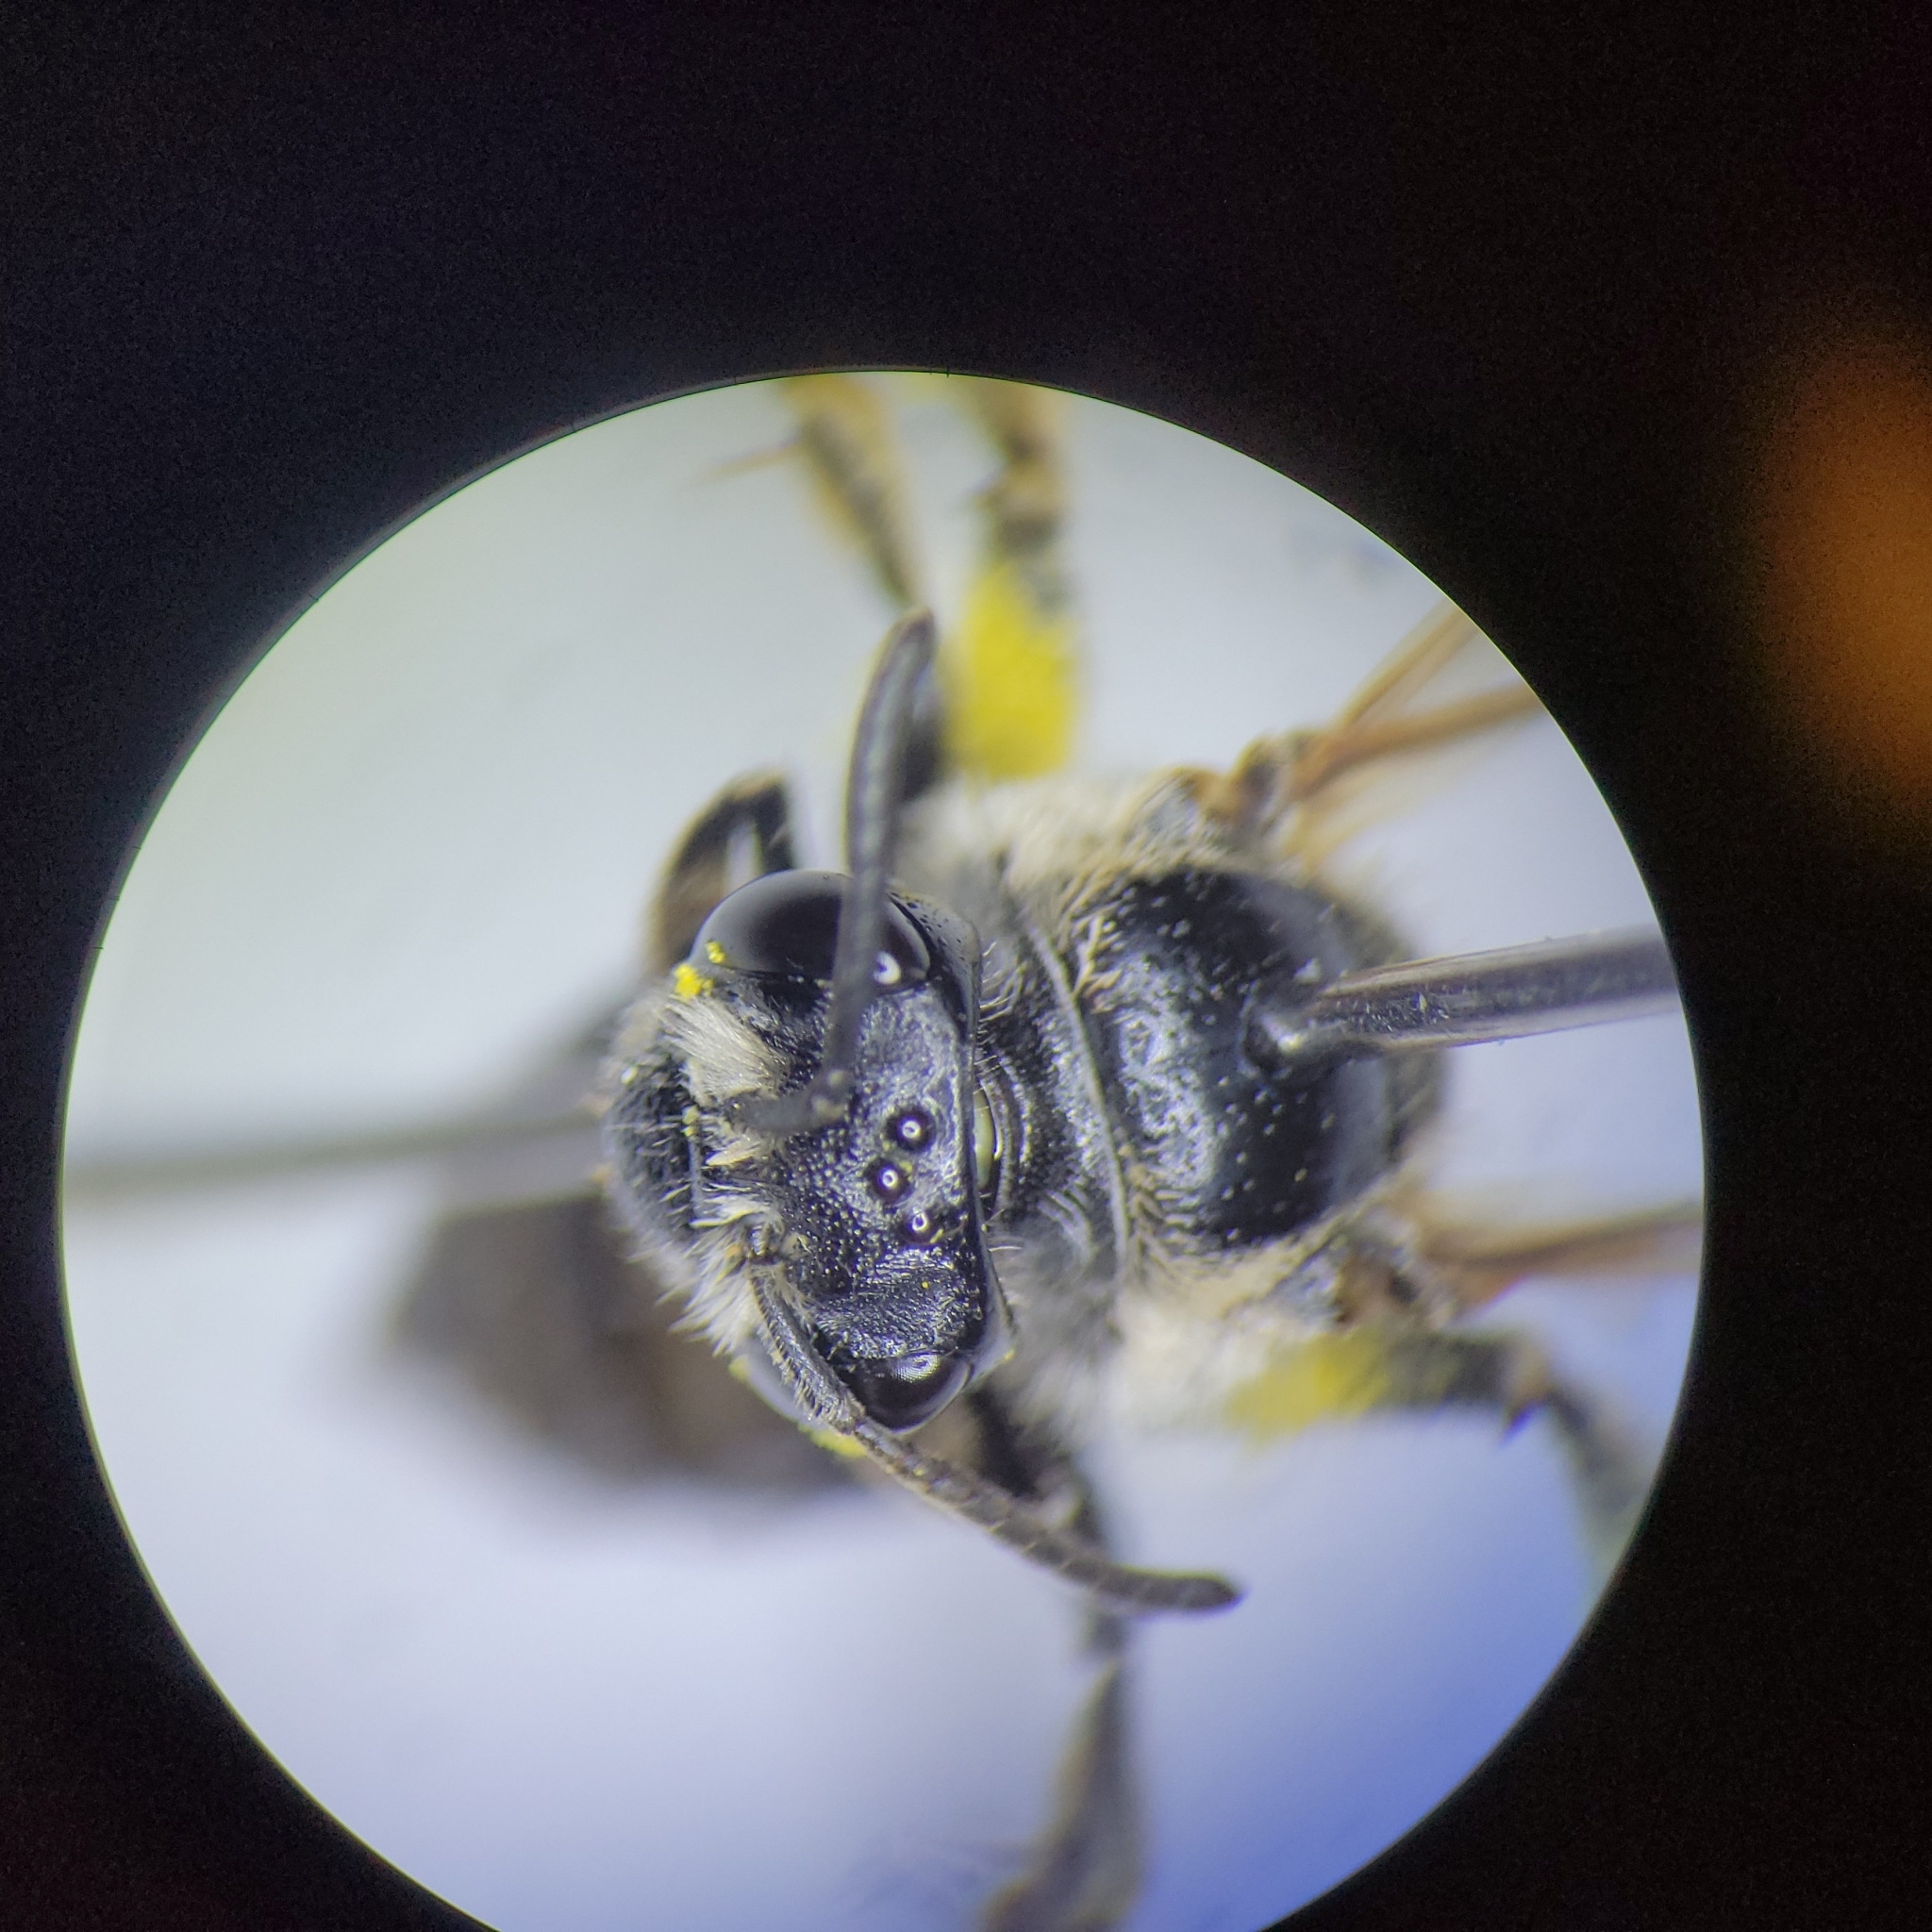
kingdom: Animalia
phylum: Arthropoda
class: Insecta
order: Hymenoptera
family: Andrenidae
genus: Andrena
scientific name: Andrena nuda
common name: Nude mining bee
